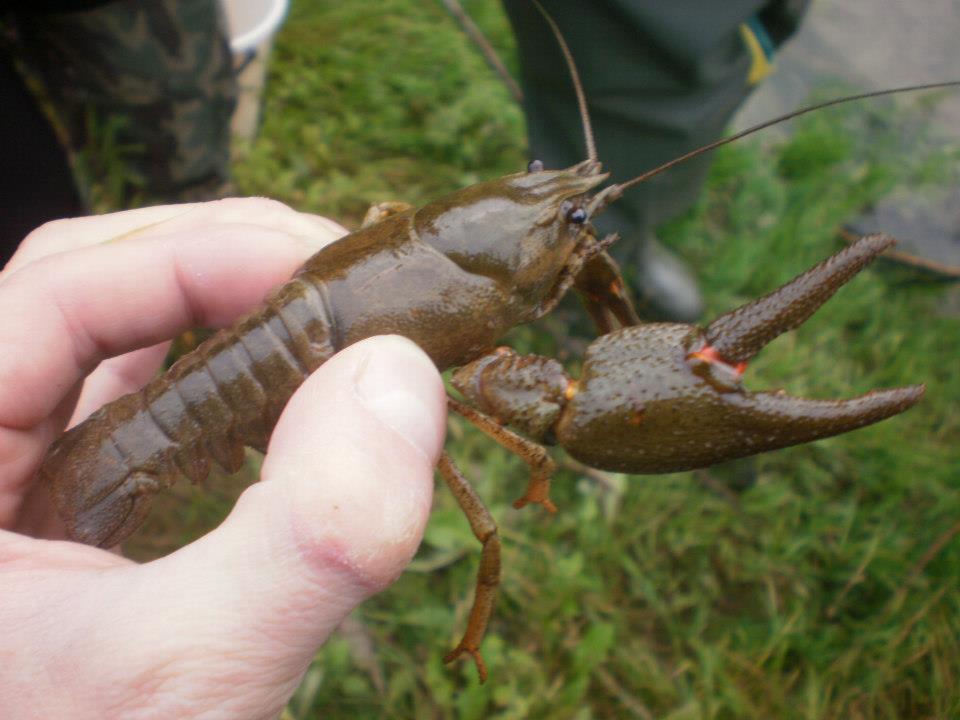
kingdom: Animalia
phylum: Arthropoda
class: Malacostraca
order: Decapoda
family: Astacidae
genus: Astacus
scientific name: Astacus astacus
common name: Noble crayfish
